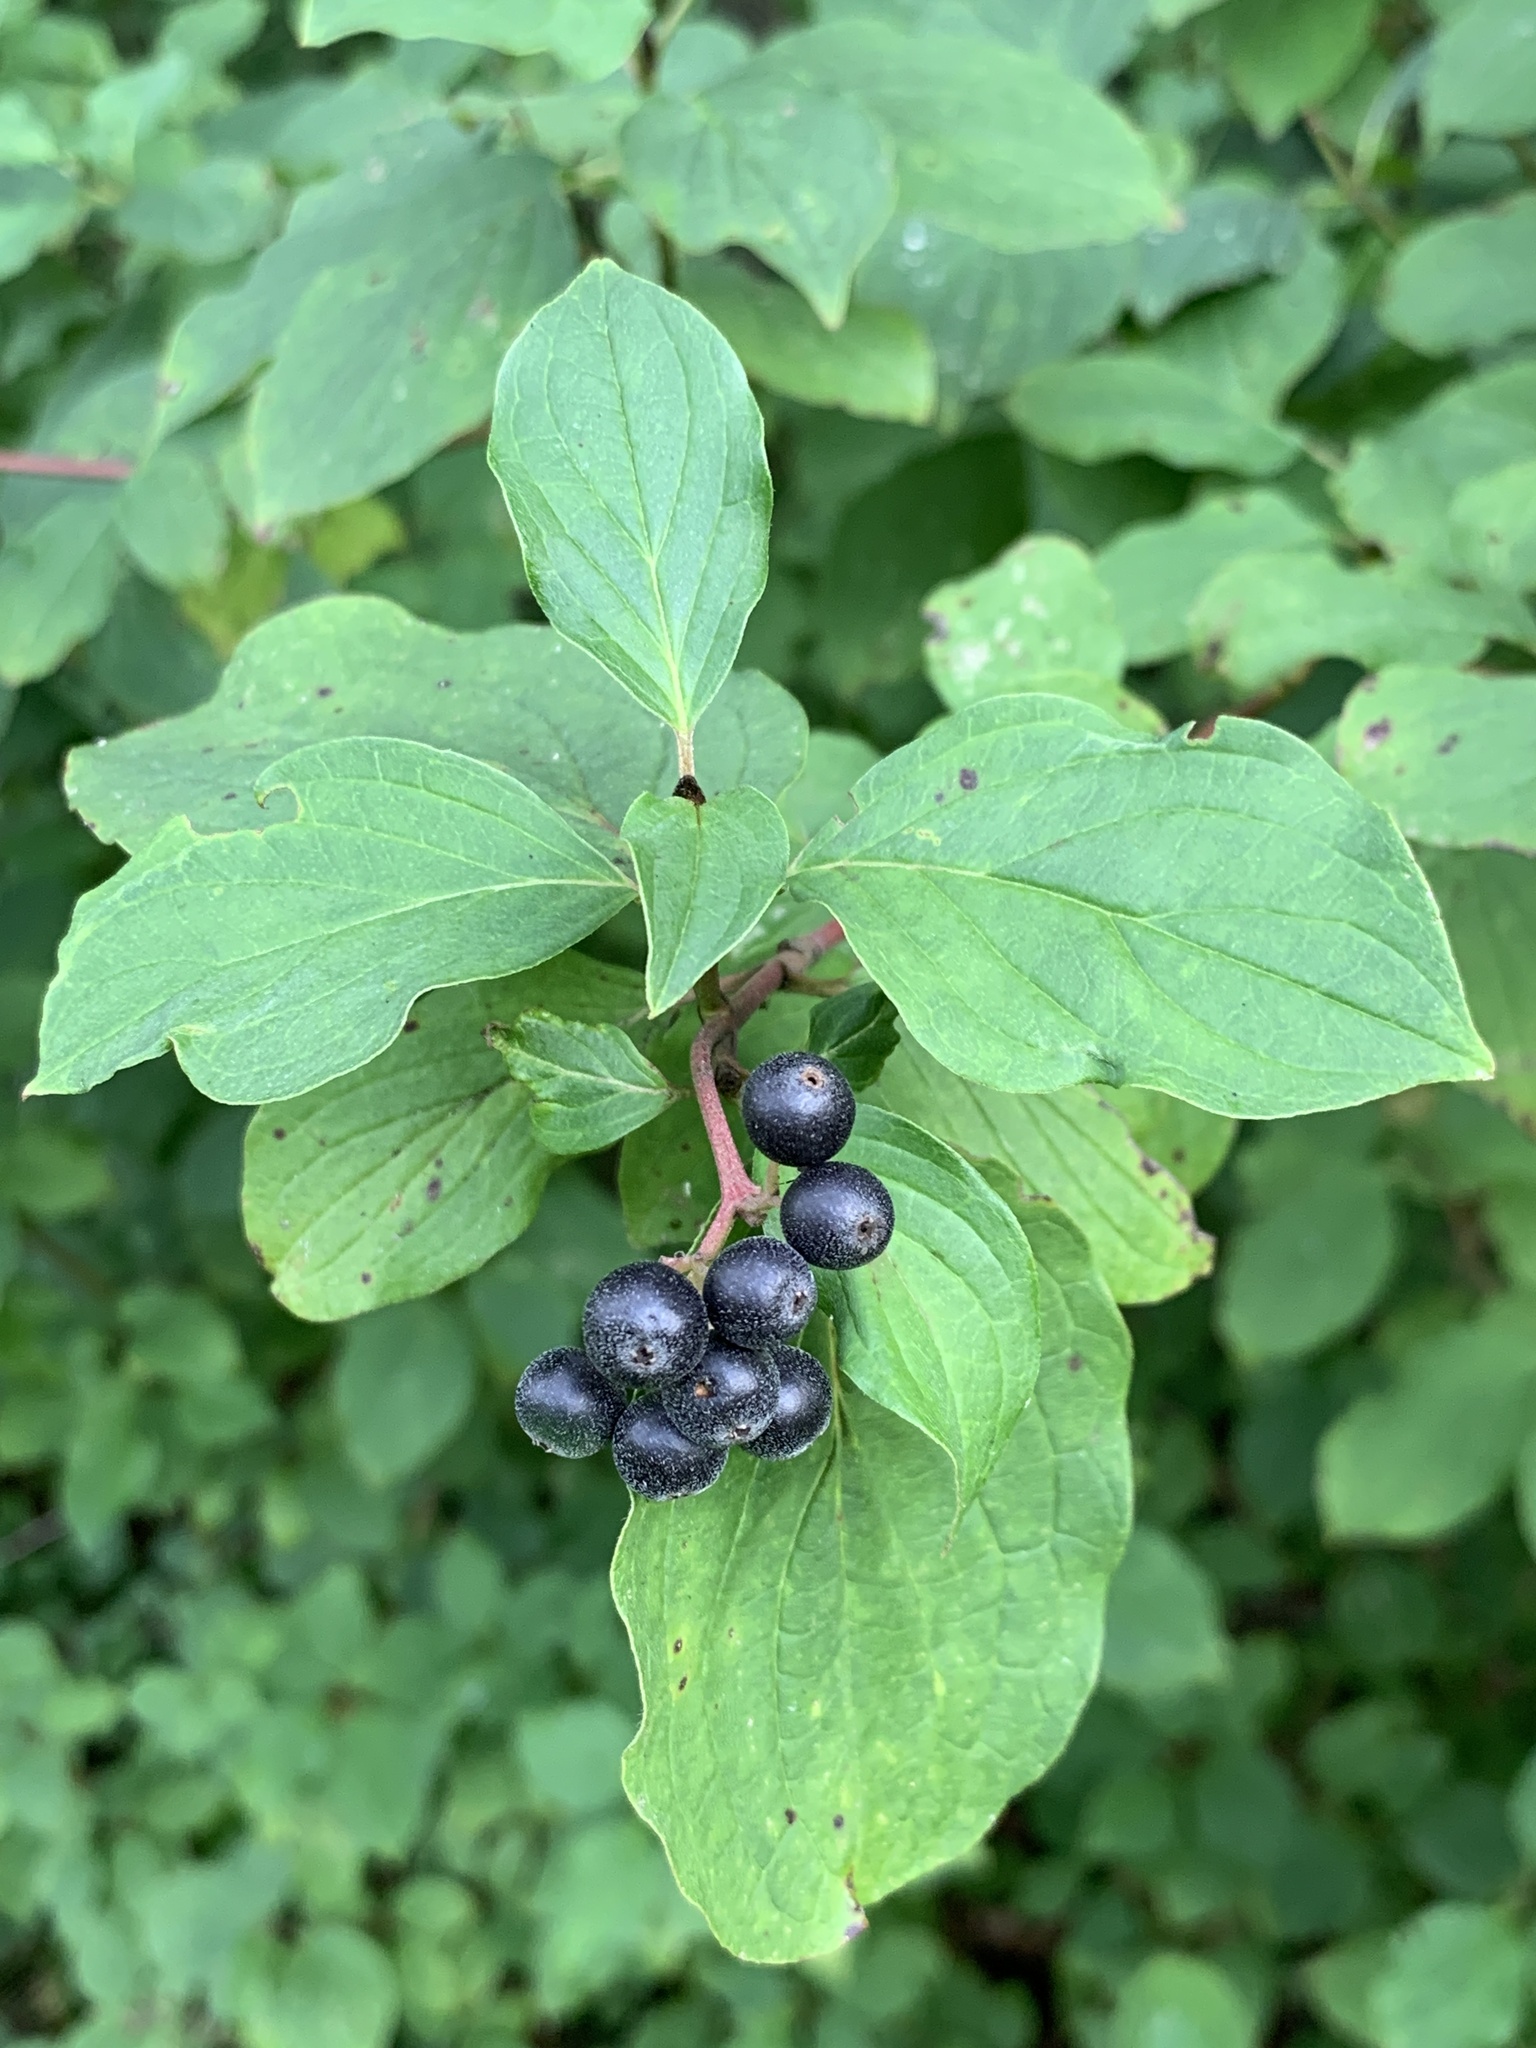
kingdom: Plantae
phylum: Tracheophyta
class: Magnoliopsida
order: Cornales
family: Cornaceae
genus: Cornus
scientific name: Cornus sanguinea
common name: Dogwood
